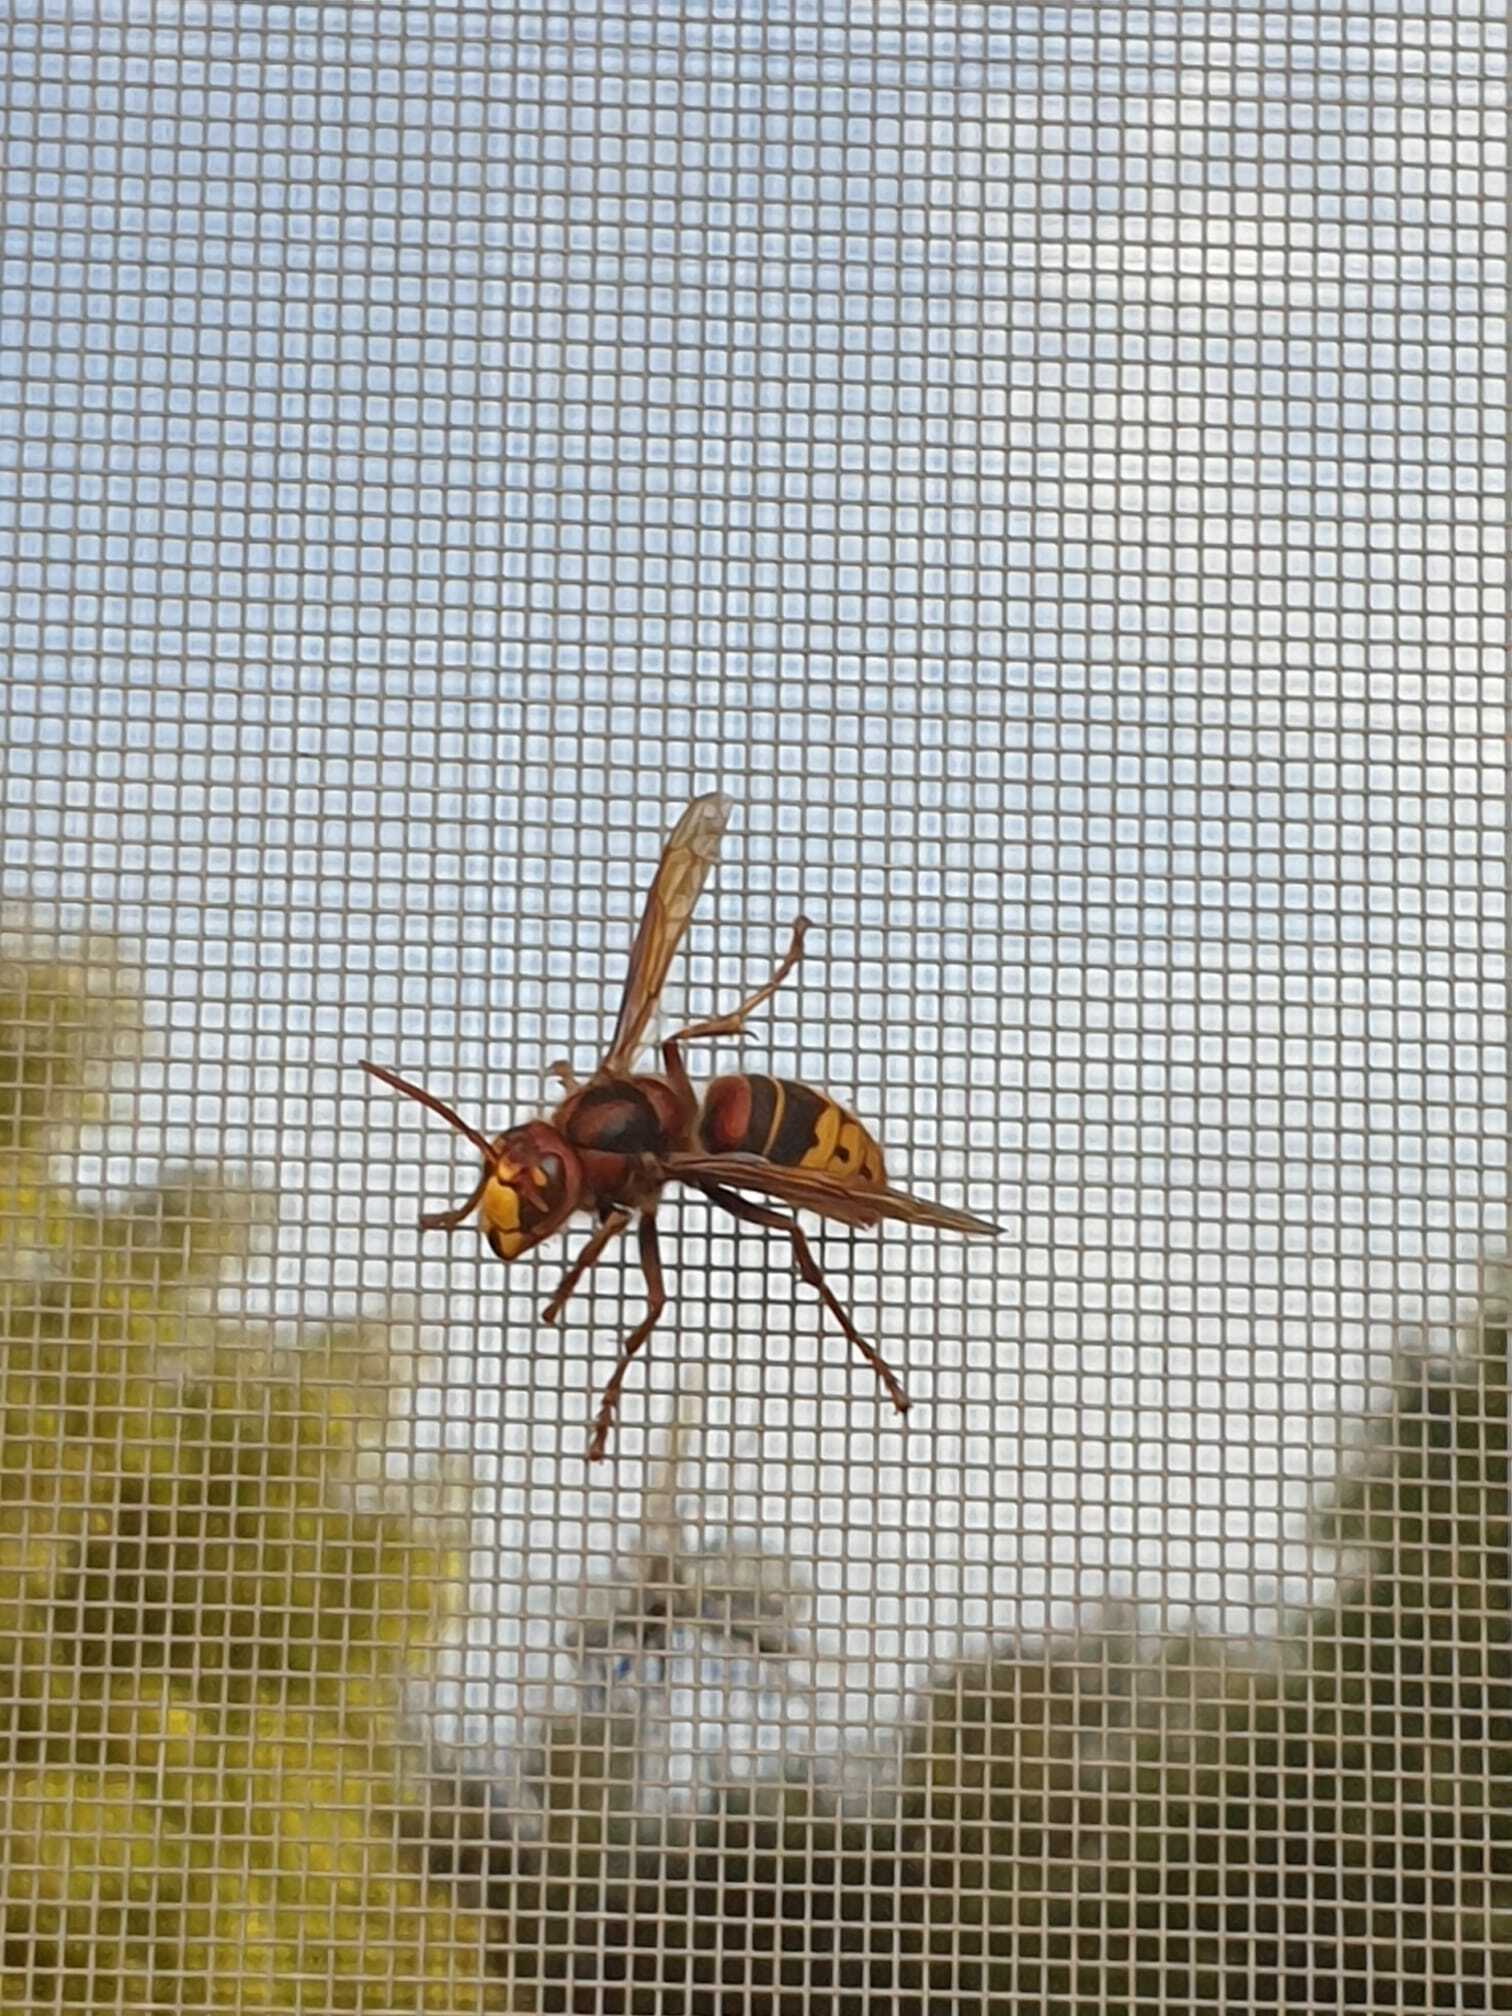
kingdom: Animalia
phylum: Arthropoda
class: Insecta
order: Hymenoptera
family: Vespidae
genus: Vespa
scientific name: Vespa crabro
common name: Hornet
